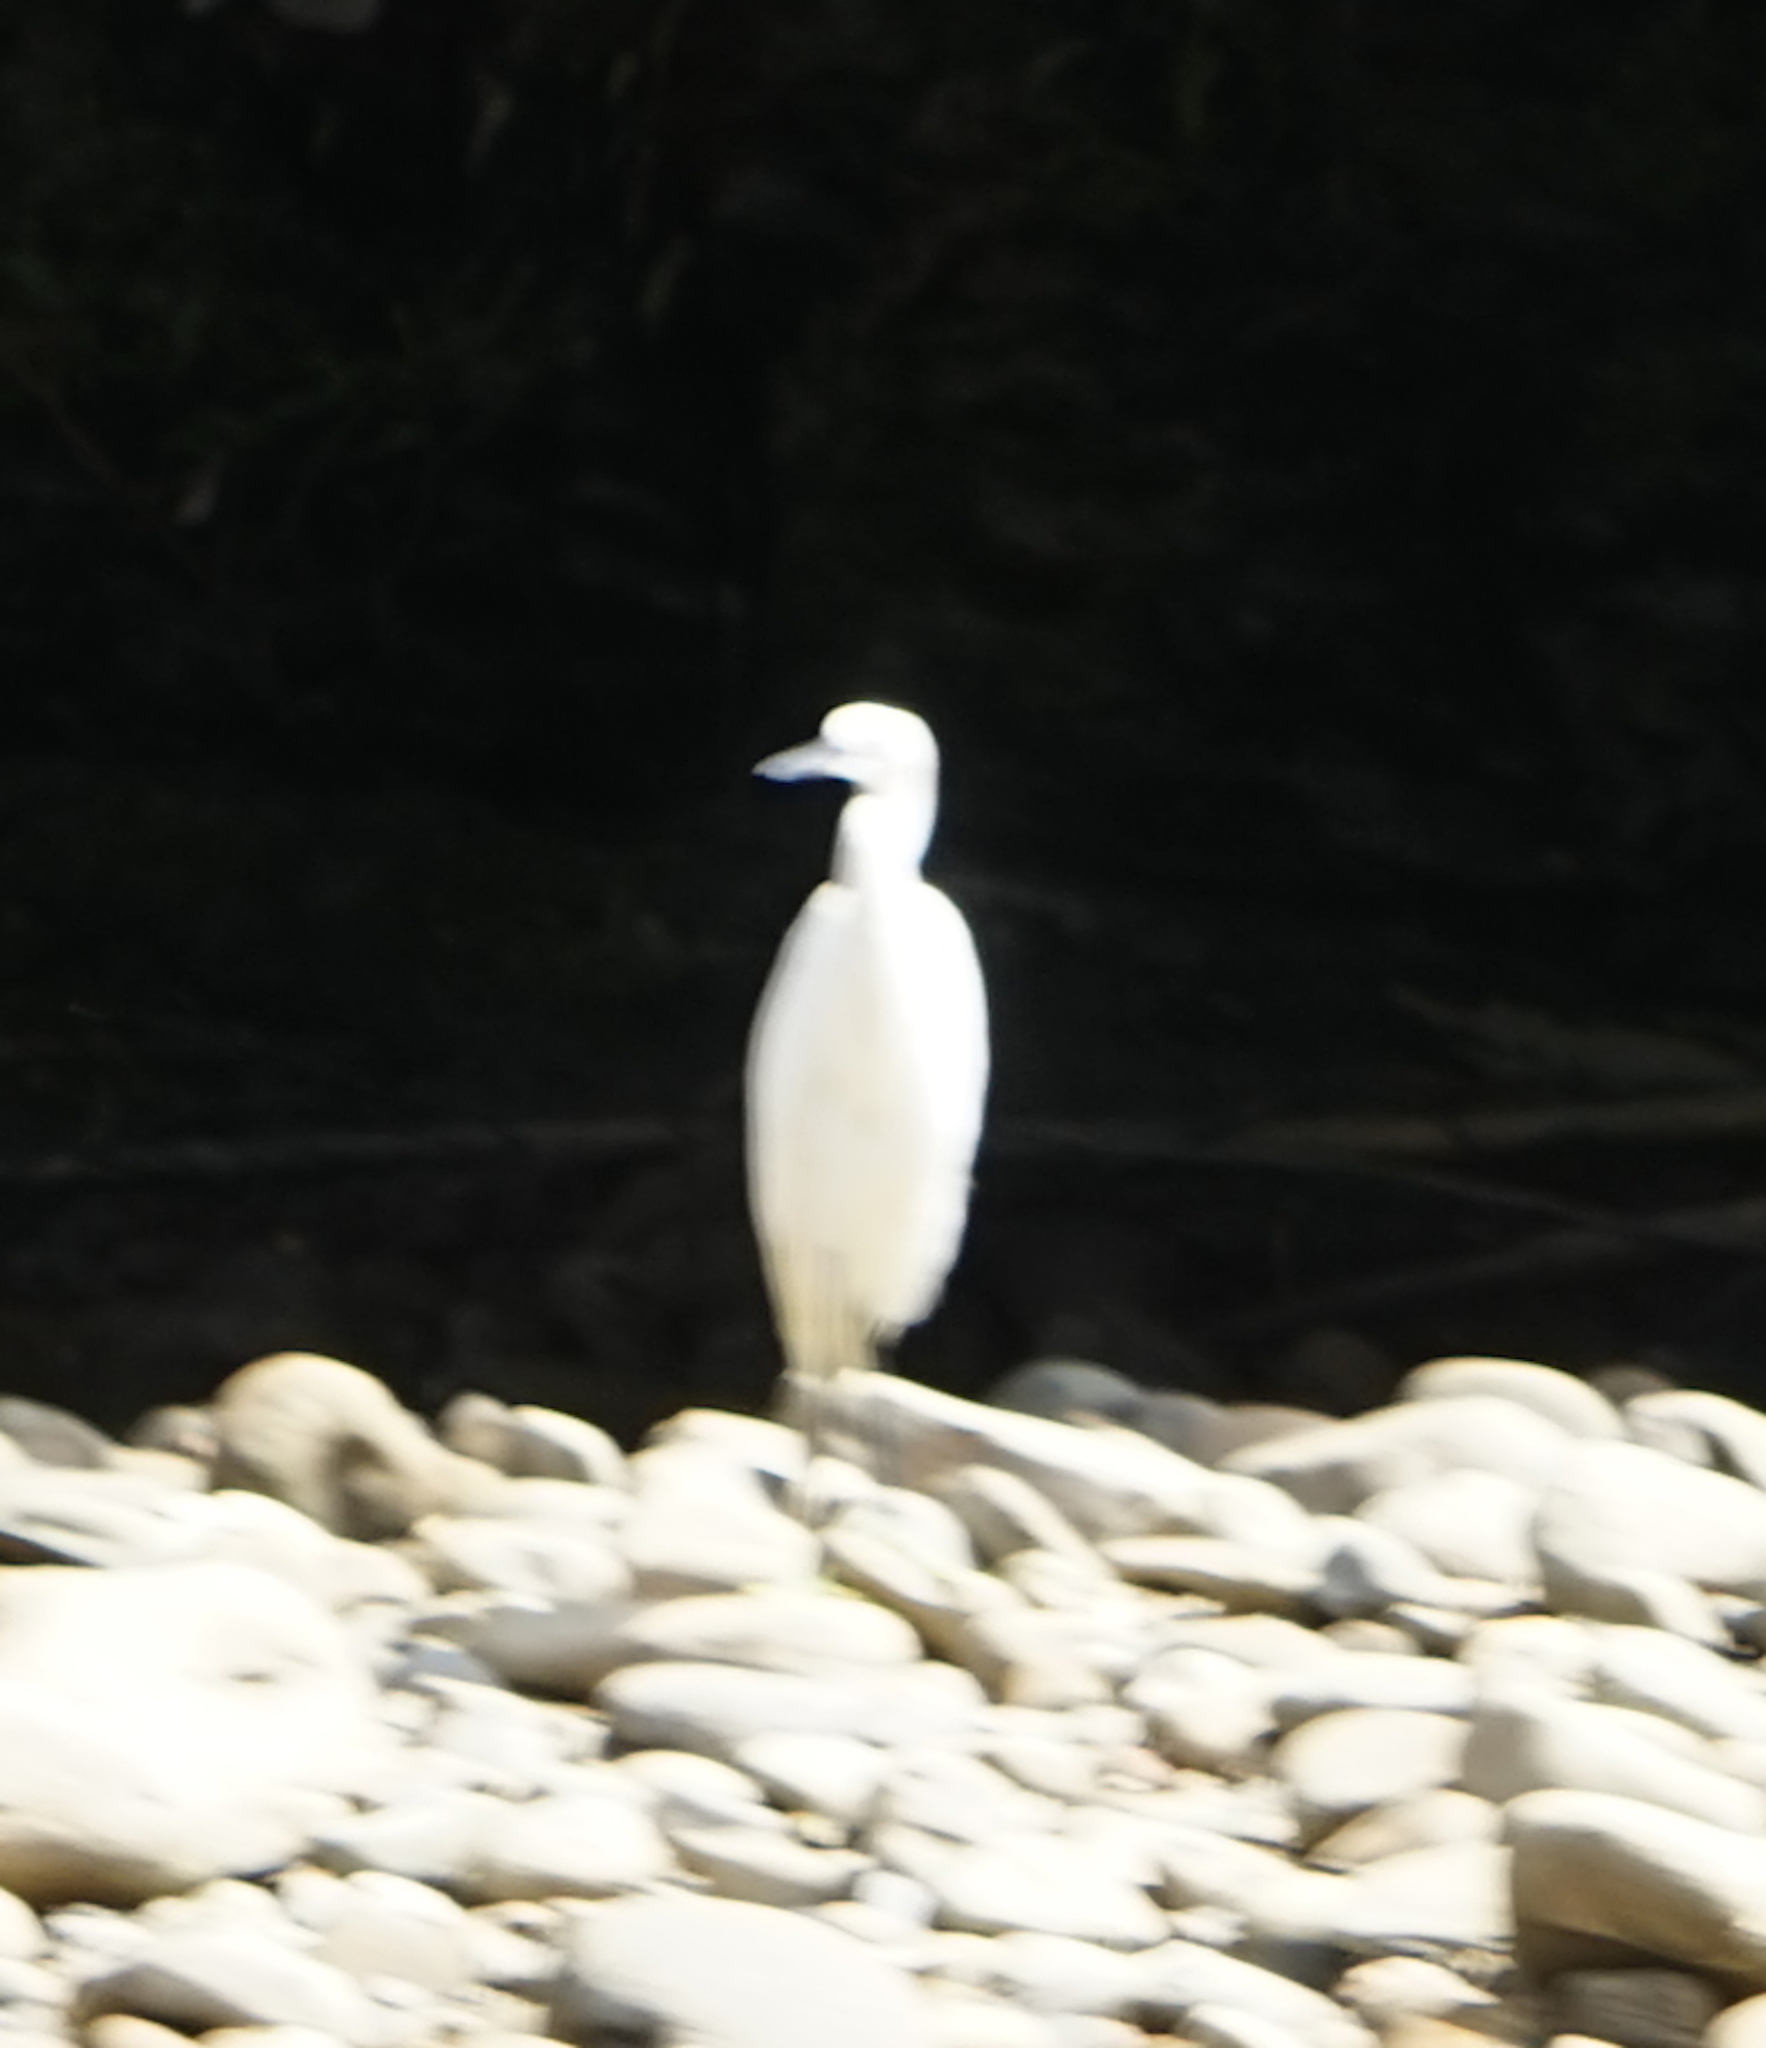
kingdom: Animalia
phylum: Chordata
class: Aves
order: Pelecaniformes
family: Ardeidae
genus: Egretta
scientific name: Egretta garzetta
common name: Little egret
